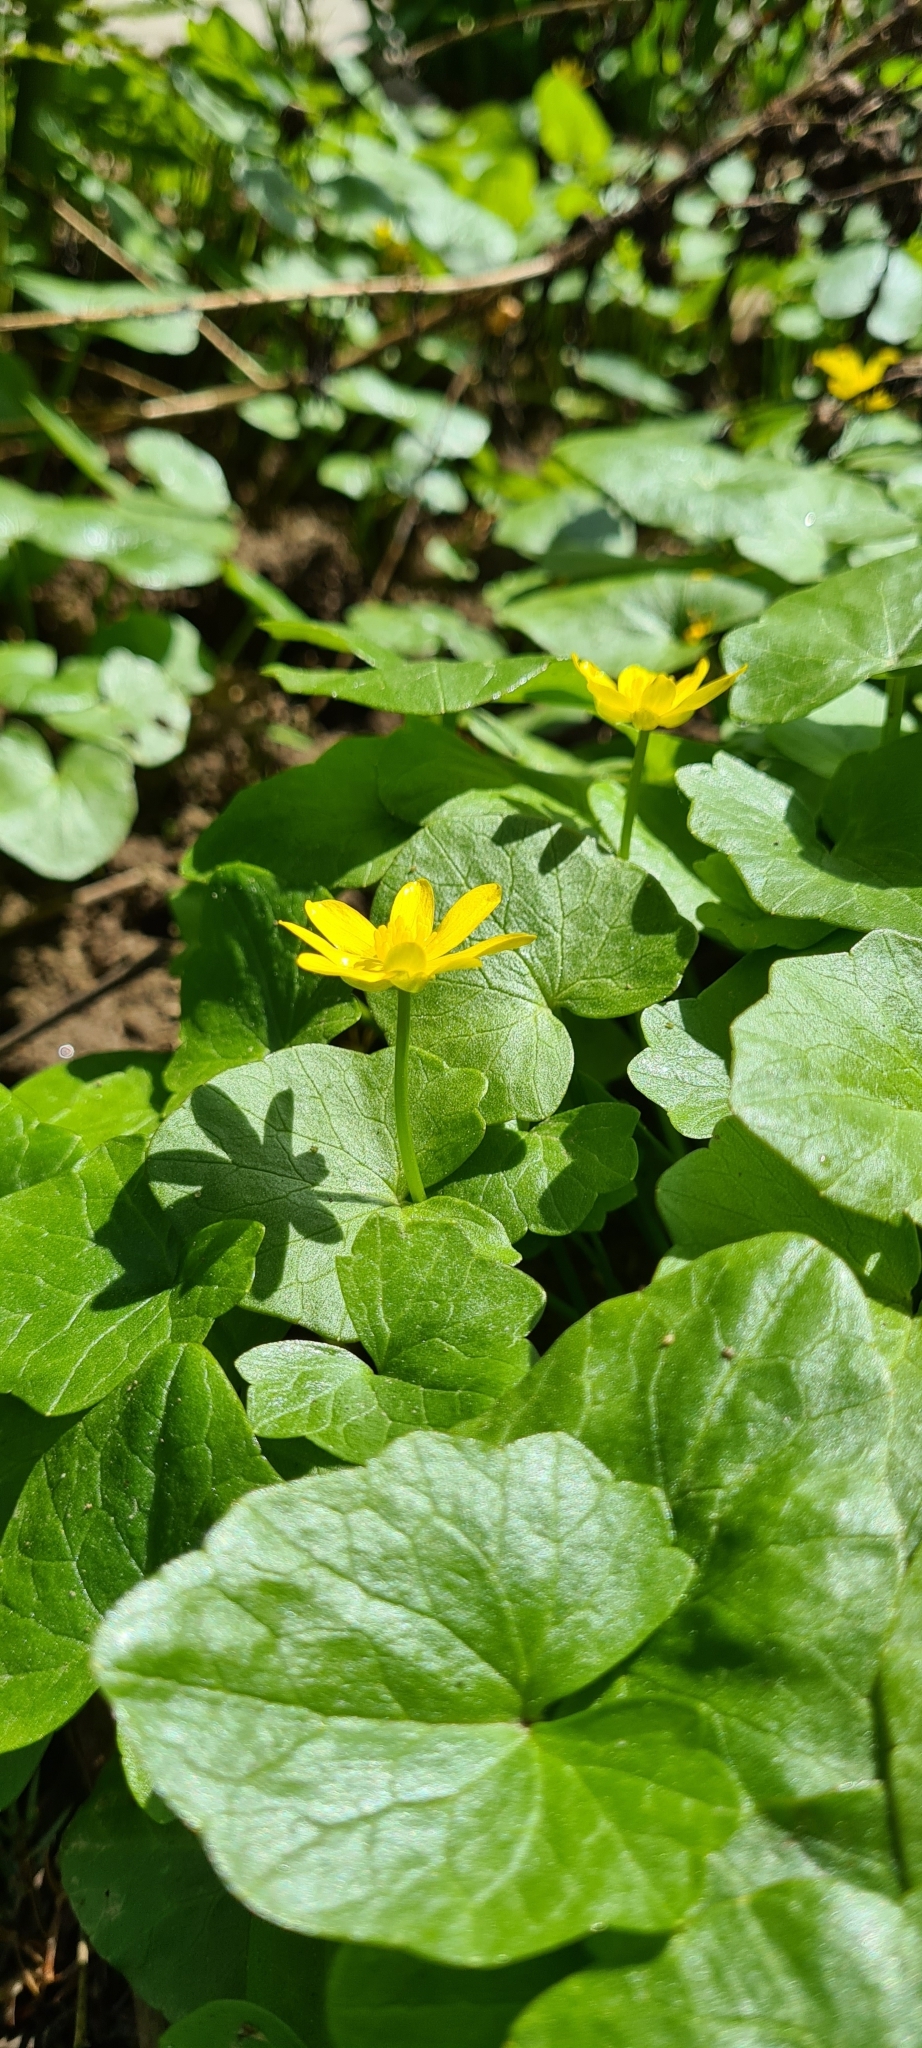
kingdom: Plantae
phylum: Tracheophyta
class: Magnoliopsida
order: Ranunculales
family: Ranunculaceae
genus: Ficaria
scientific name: Ficaria verna
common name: Lesser celandine
